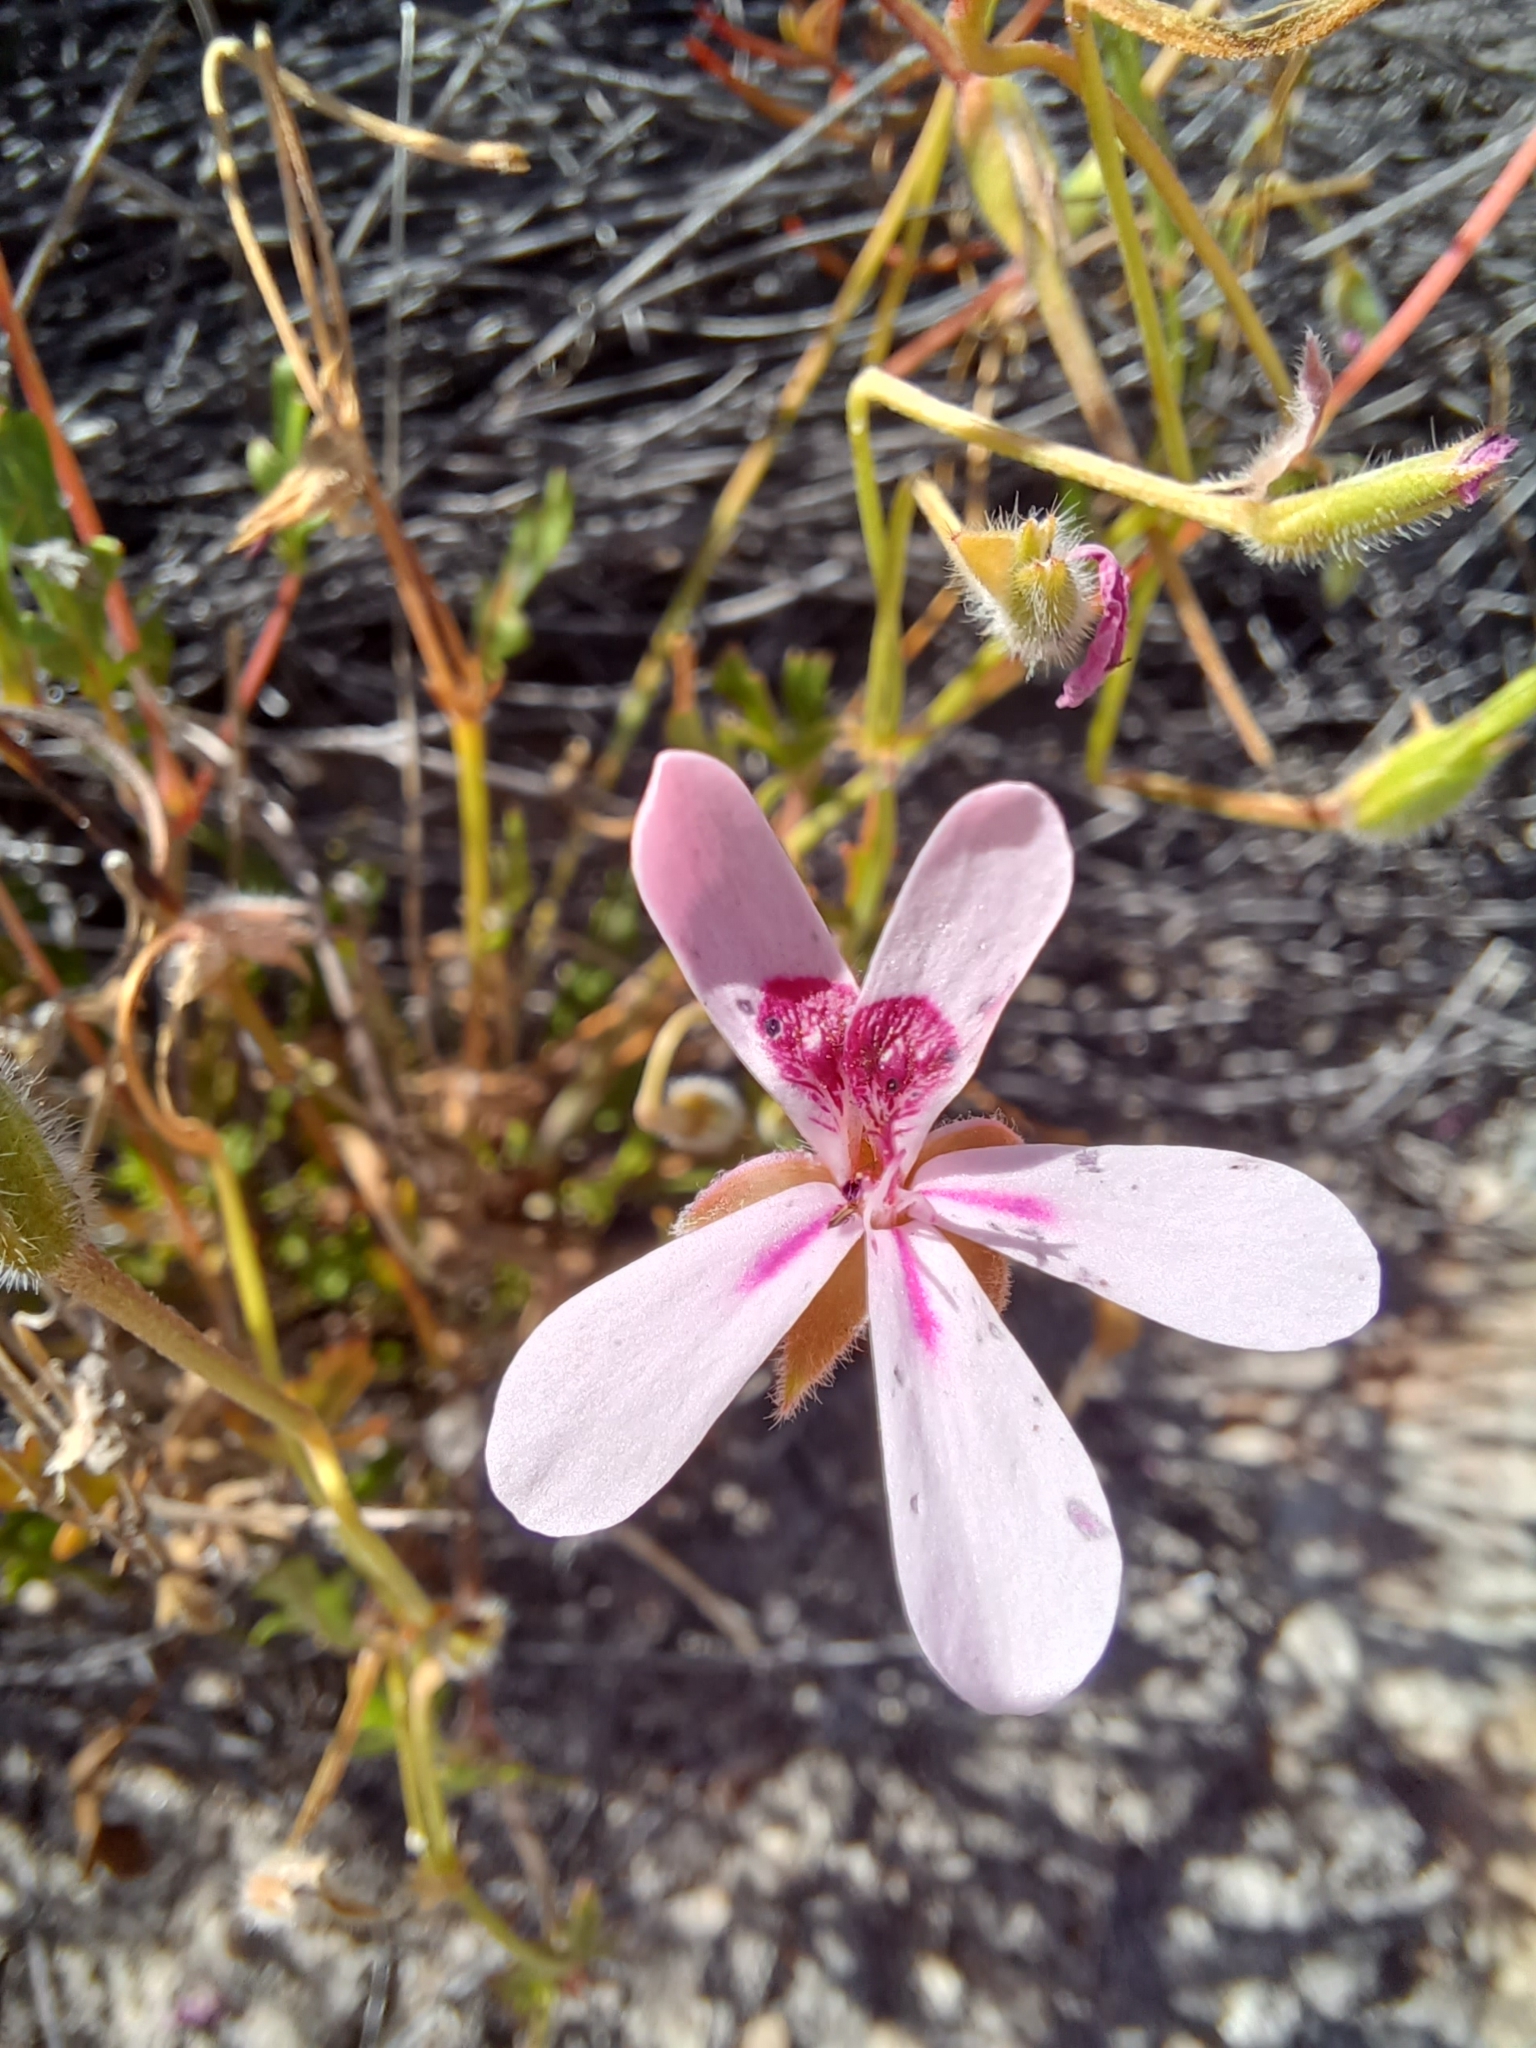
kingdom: Plantae
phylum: Tracheophyta
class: Magnoliopsida
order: Geraniales
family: Geraniaceae
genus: Pelargonium
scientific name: Pelargonium capillare
